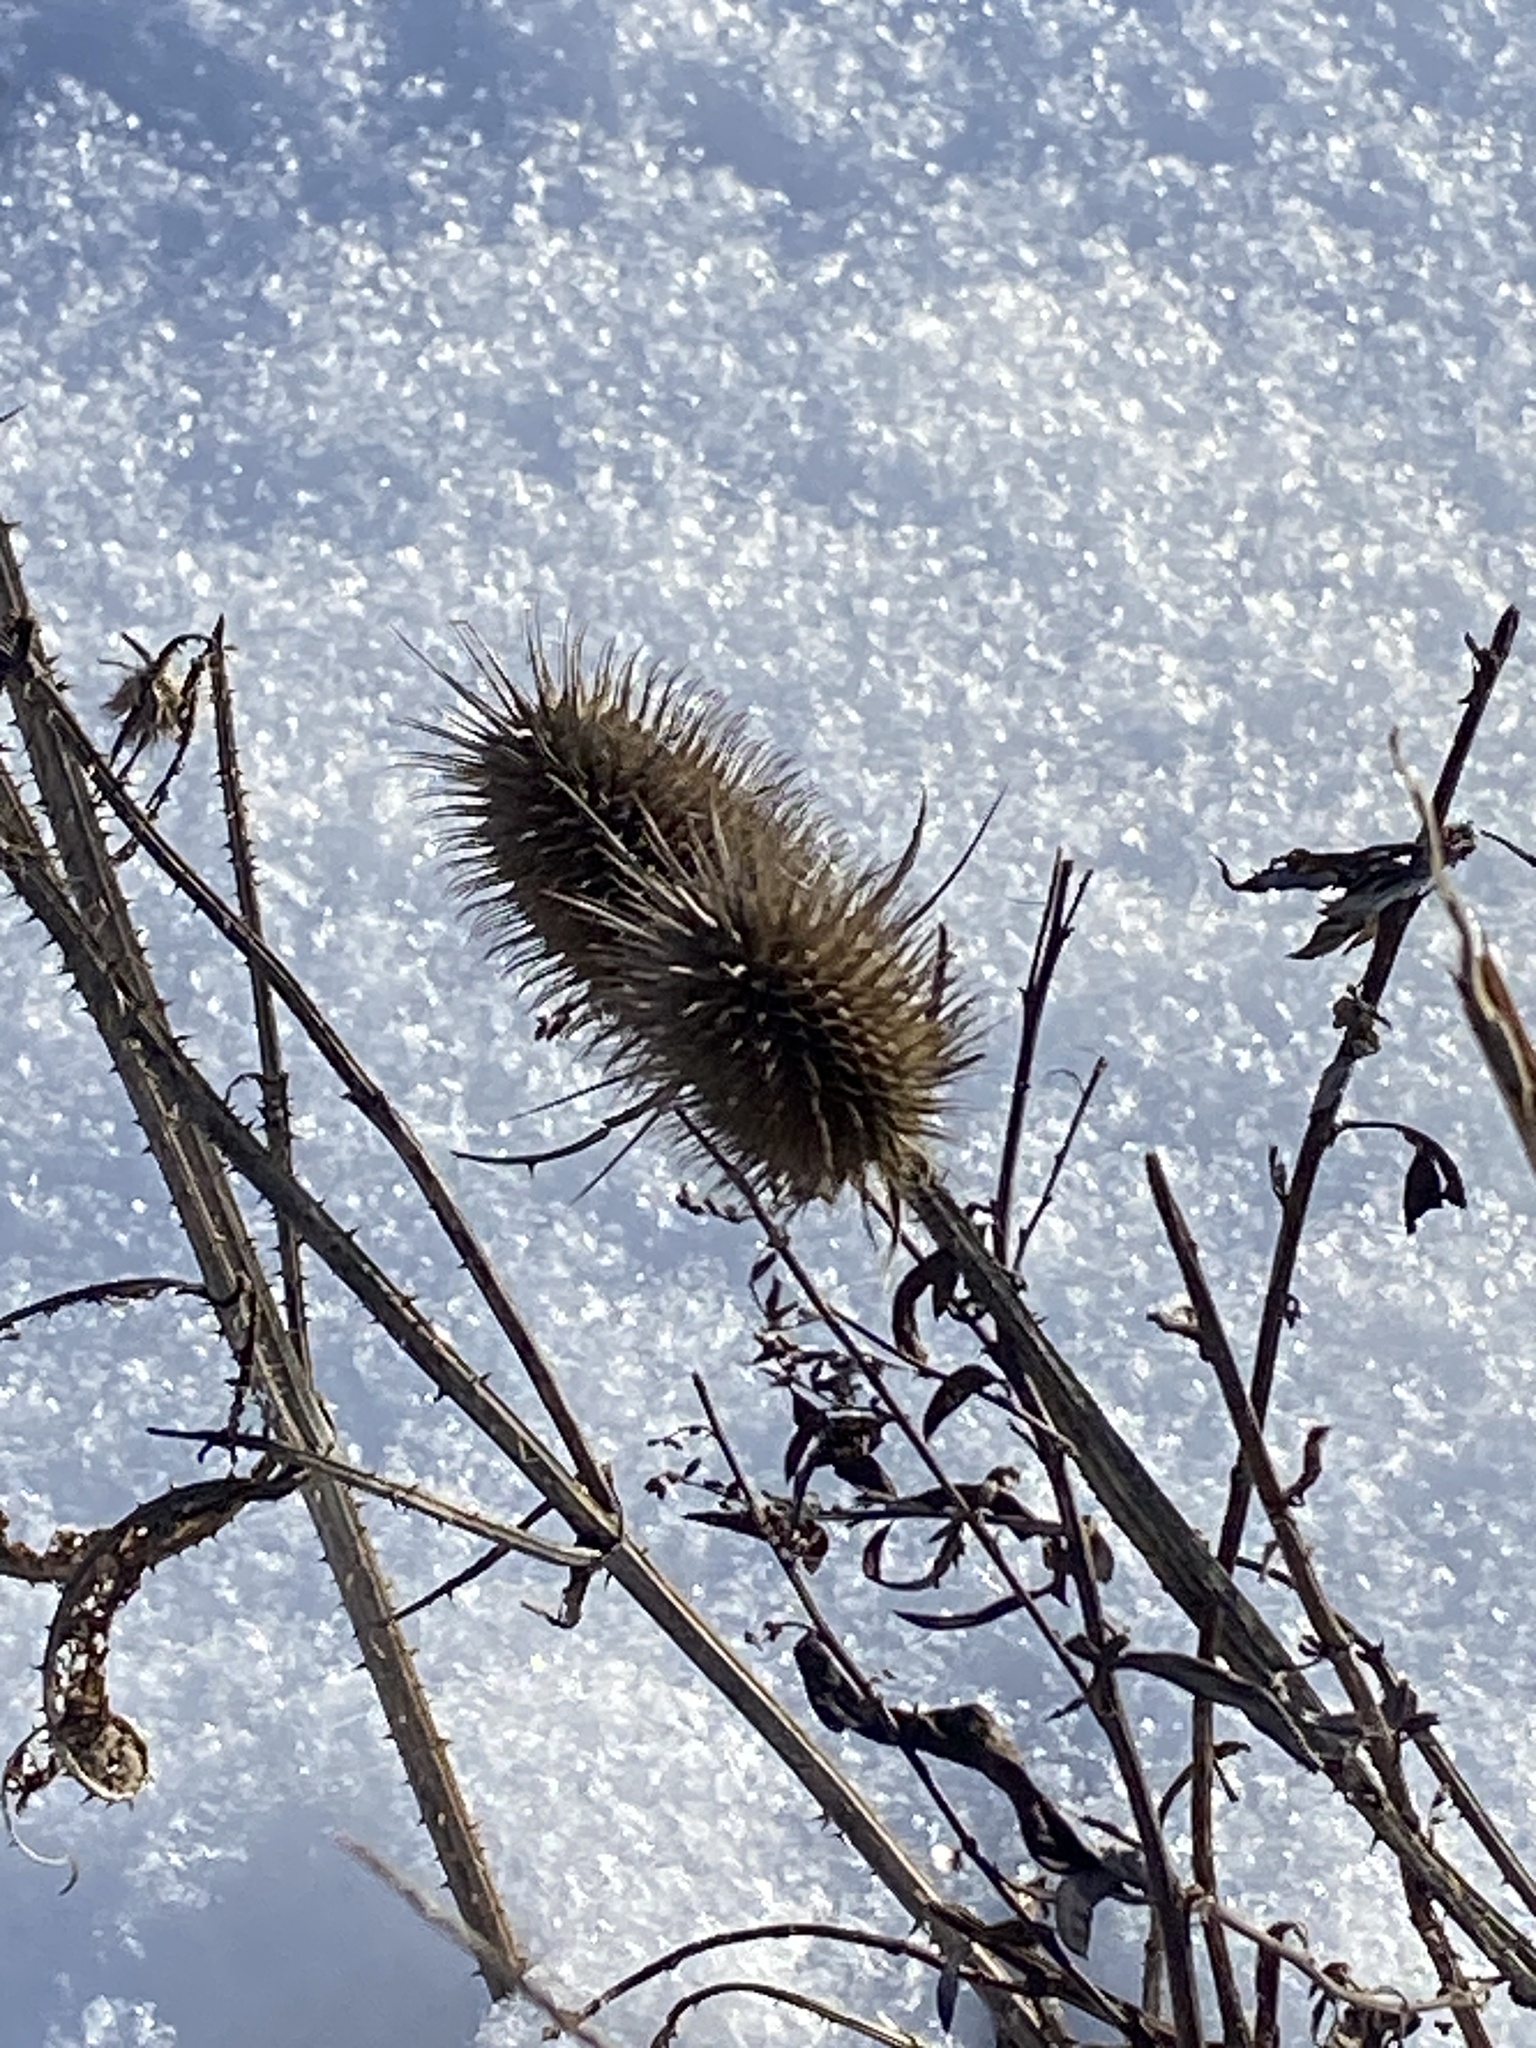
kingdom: Plantae
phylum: Tracheophyta
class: Magnoliopsida
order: Dipsacales
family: Caprifoliaceae
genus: Dipsacus
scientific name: Dipsacus fullonum
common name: Teasel
